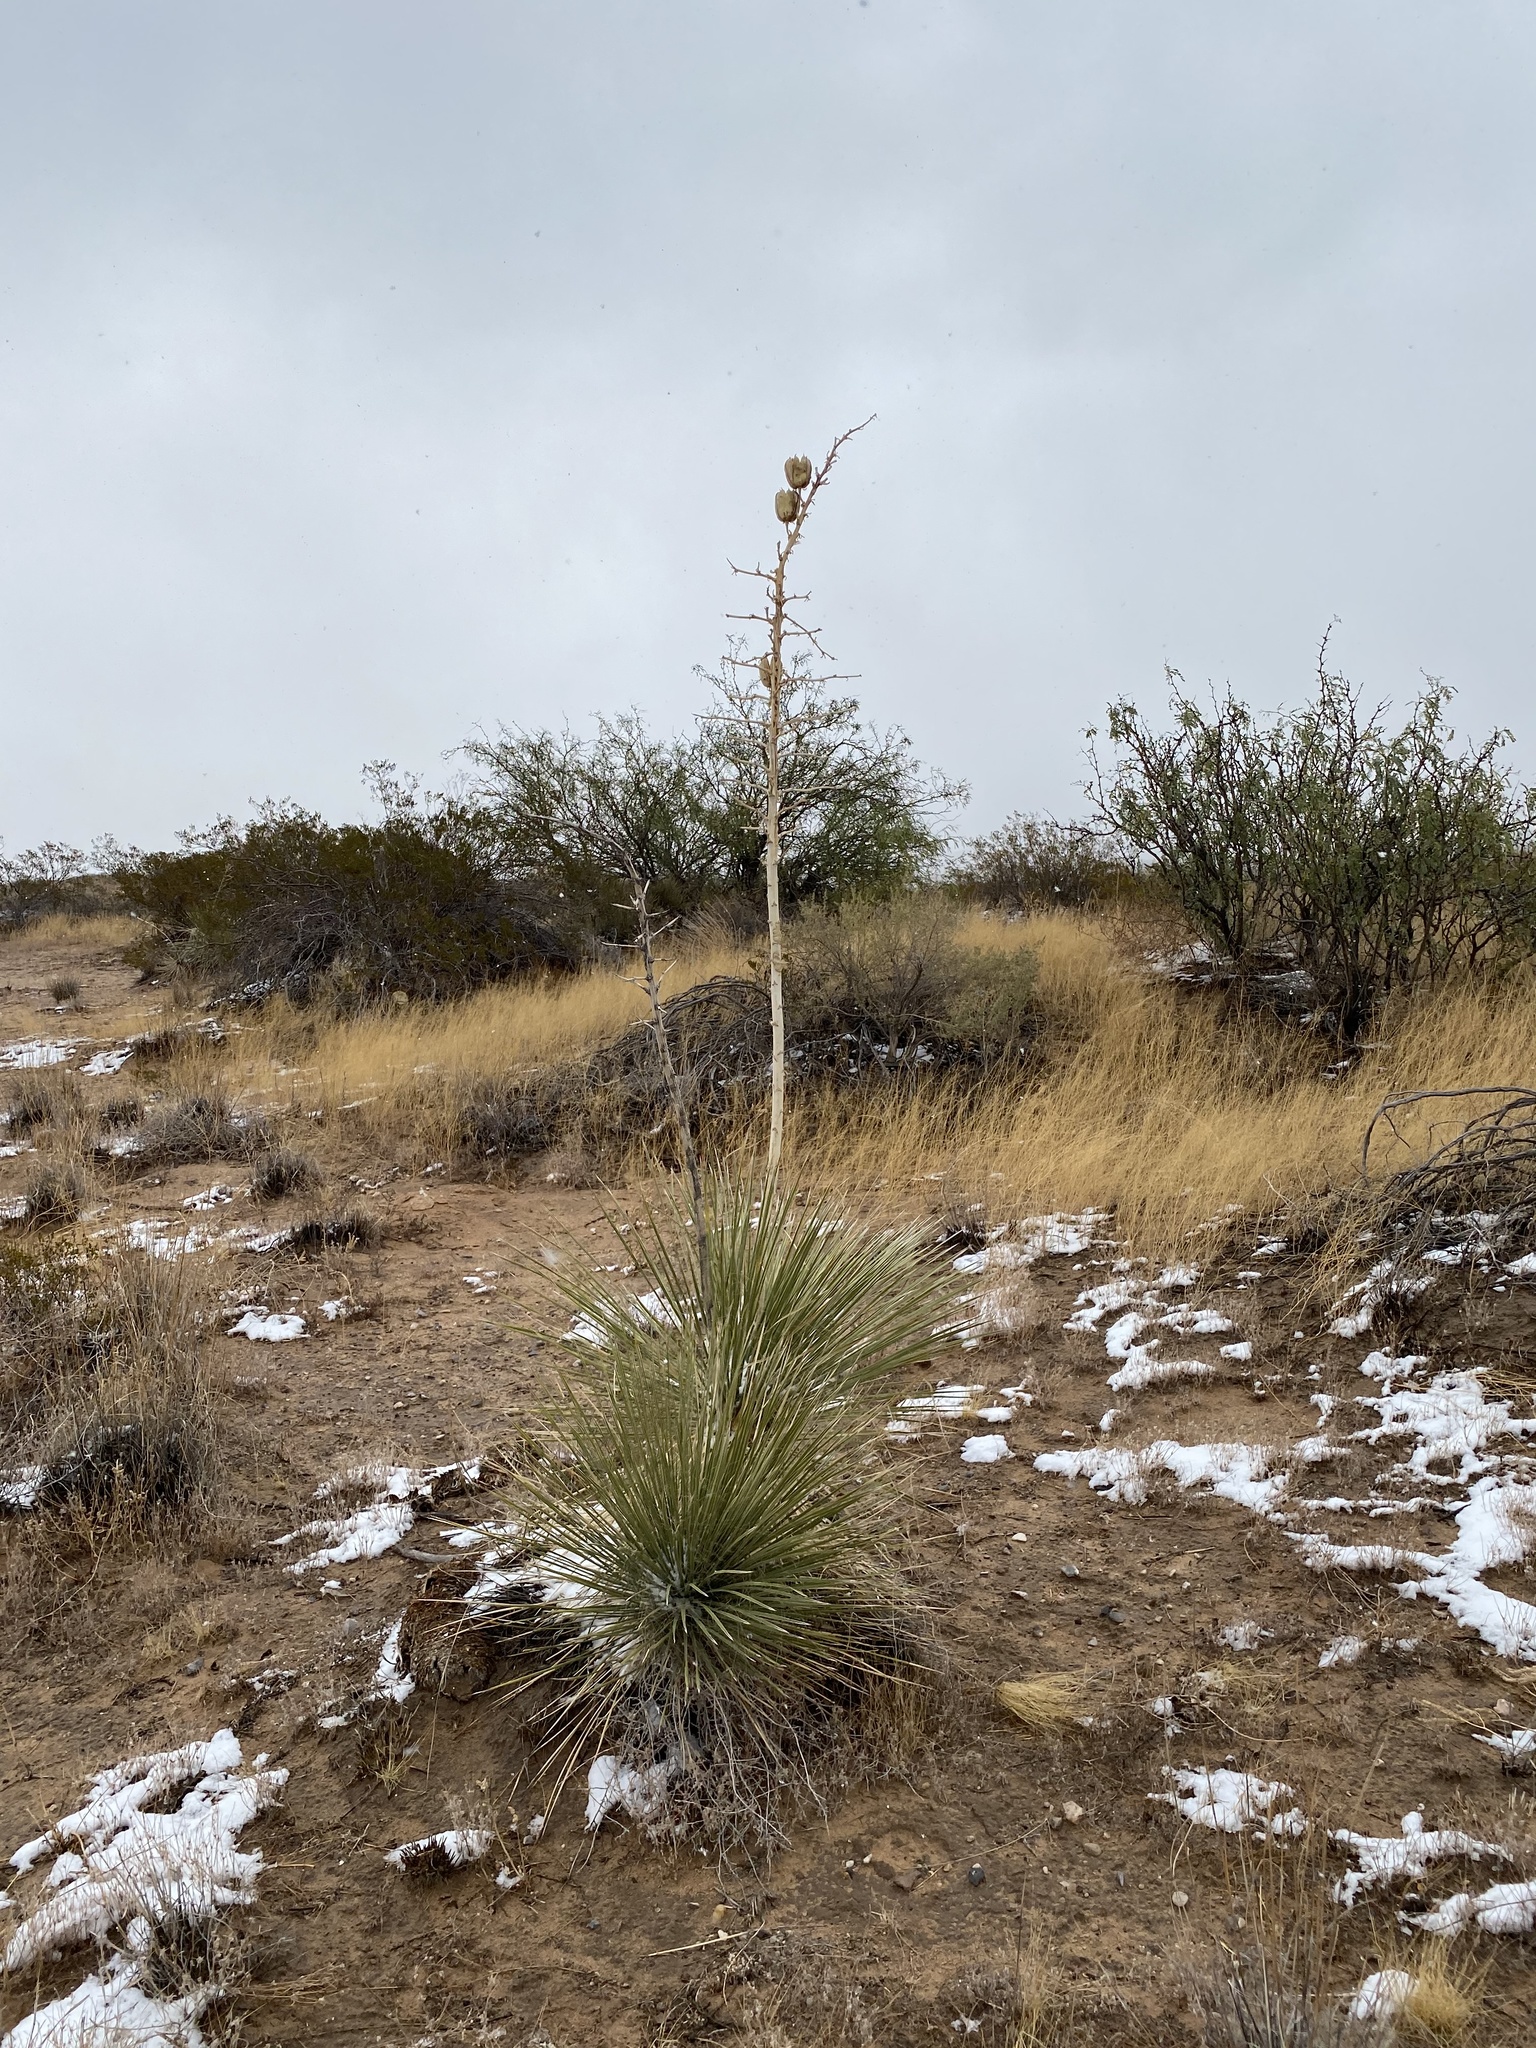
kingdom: Plantae
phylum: Tracheophyta
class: Liliopsida
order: Asparagales
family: Asparagaceae
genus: Yucca
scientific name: Yucca elata
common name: Palmella
